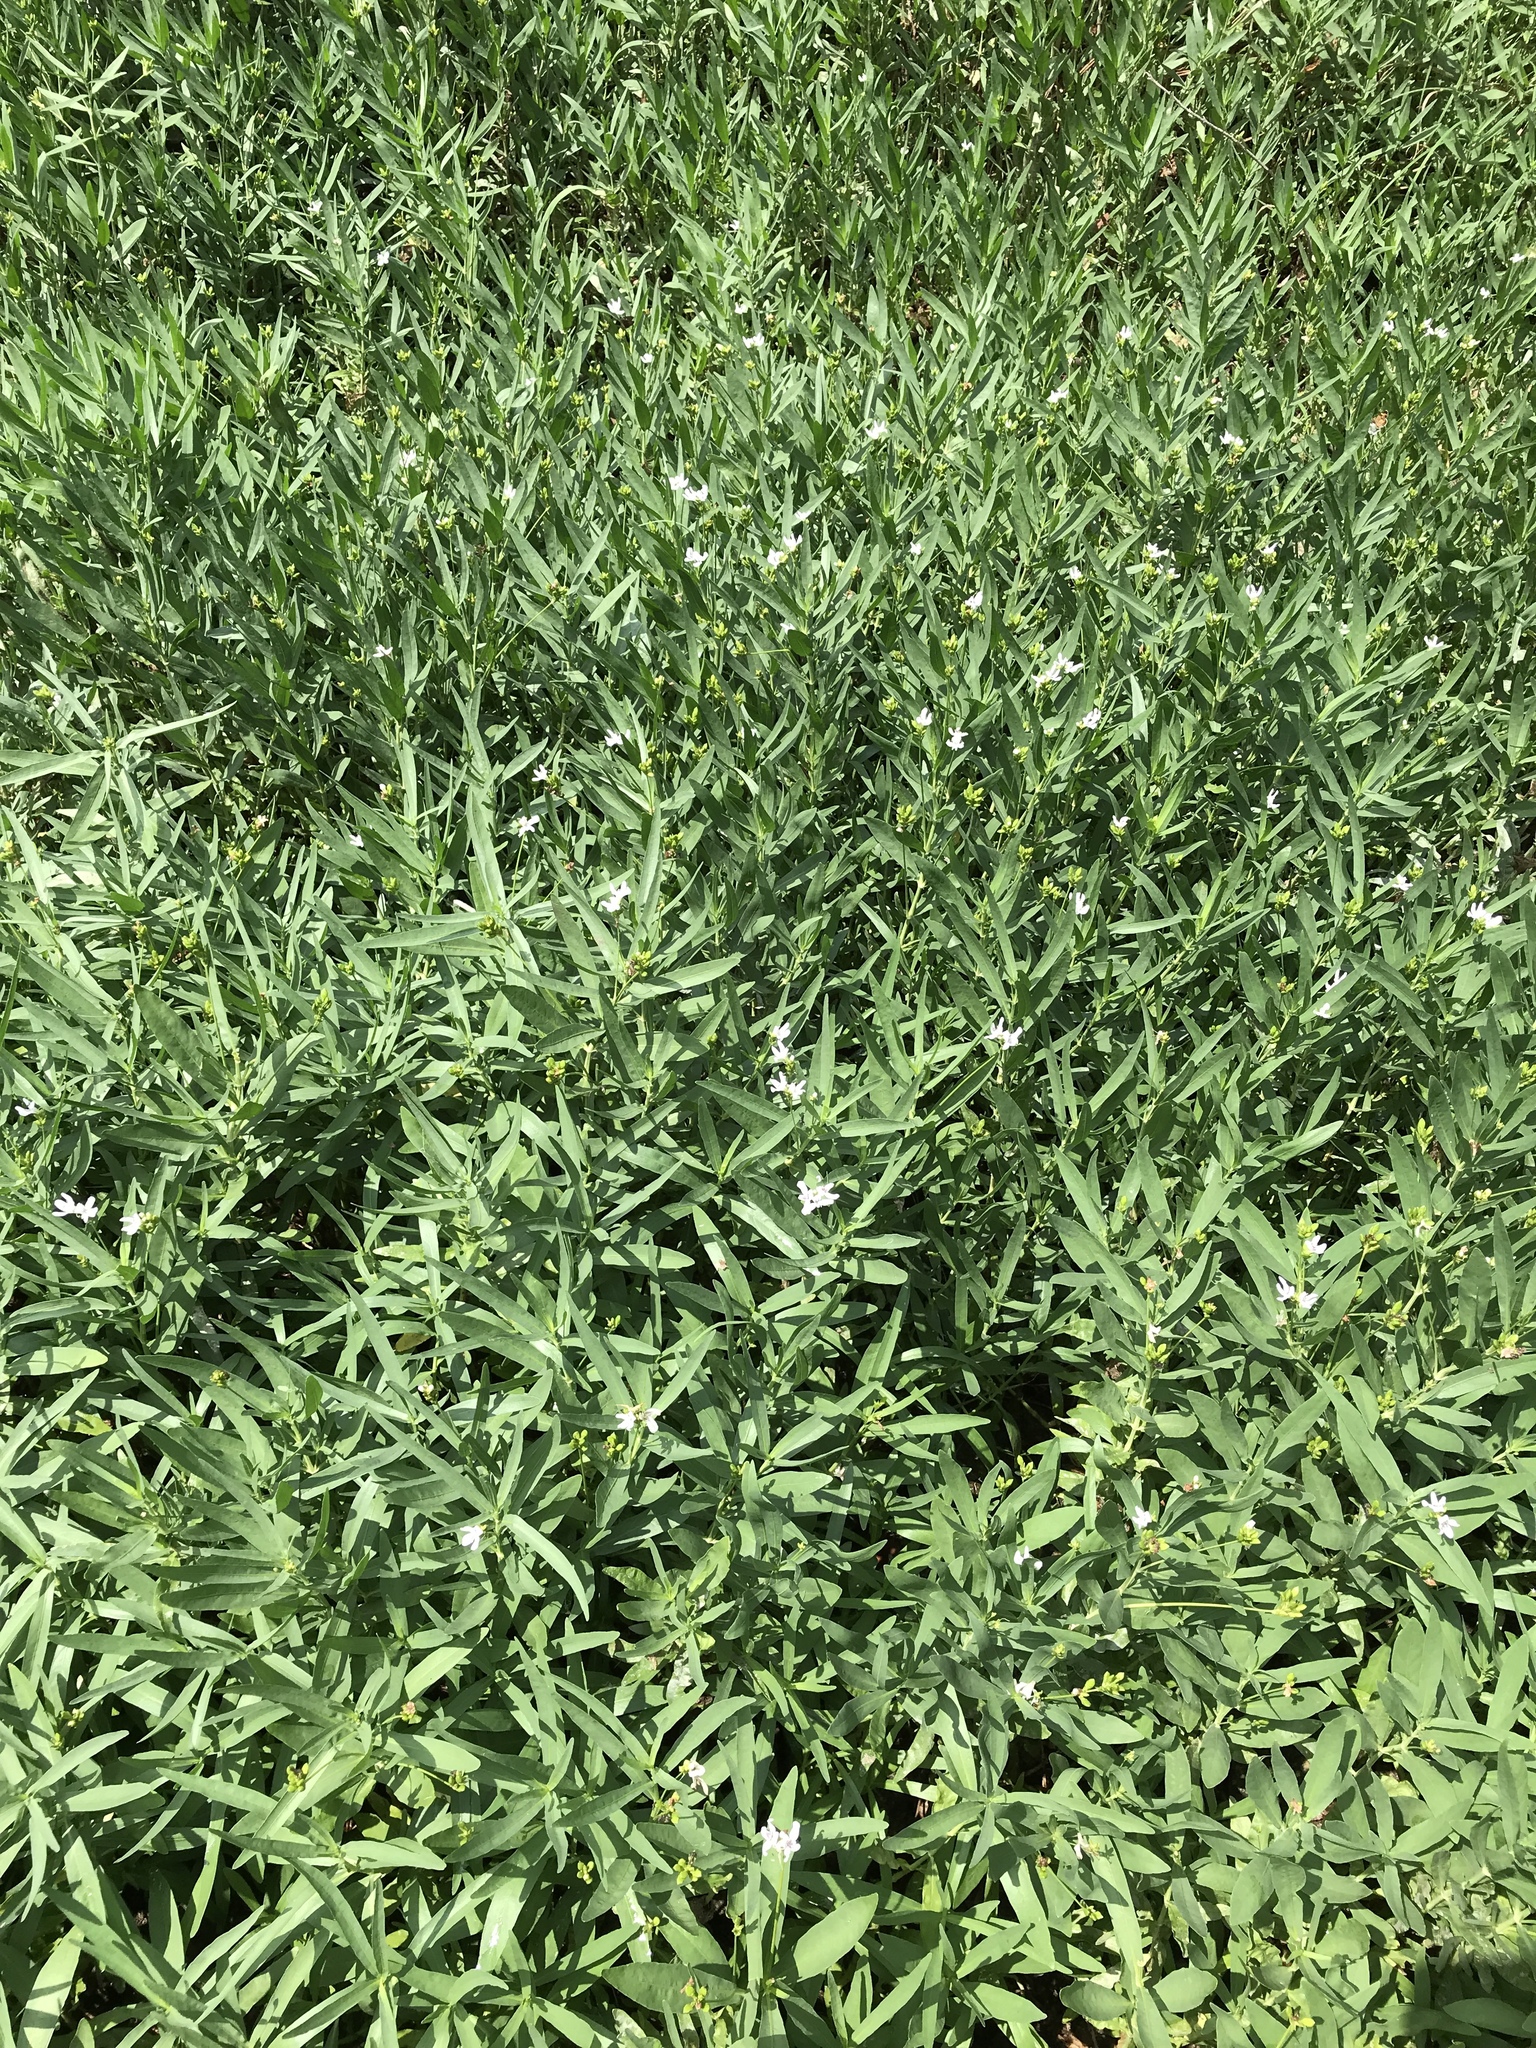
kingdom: Plantae
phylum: Tracheophyta
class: Magnoliopsida
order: Lamiales
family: Acanthaceae
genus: Dianthera
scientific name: Dianthera americana
